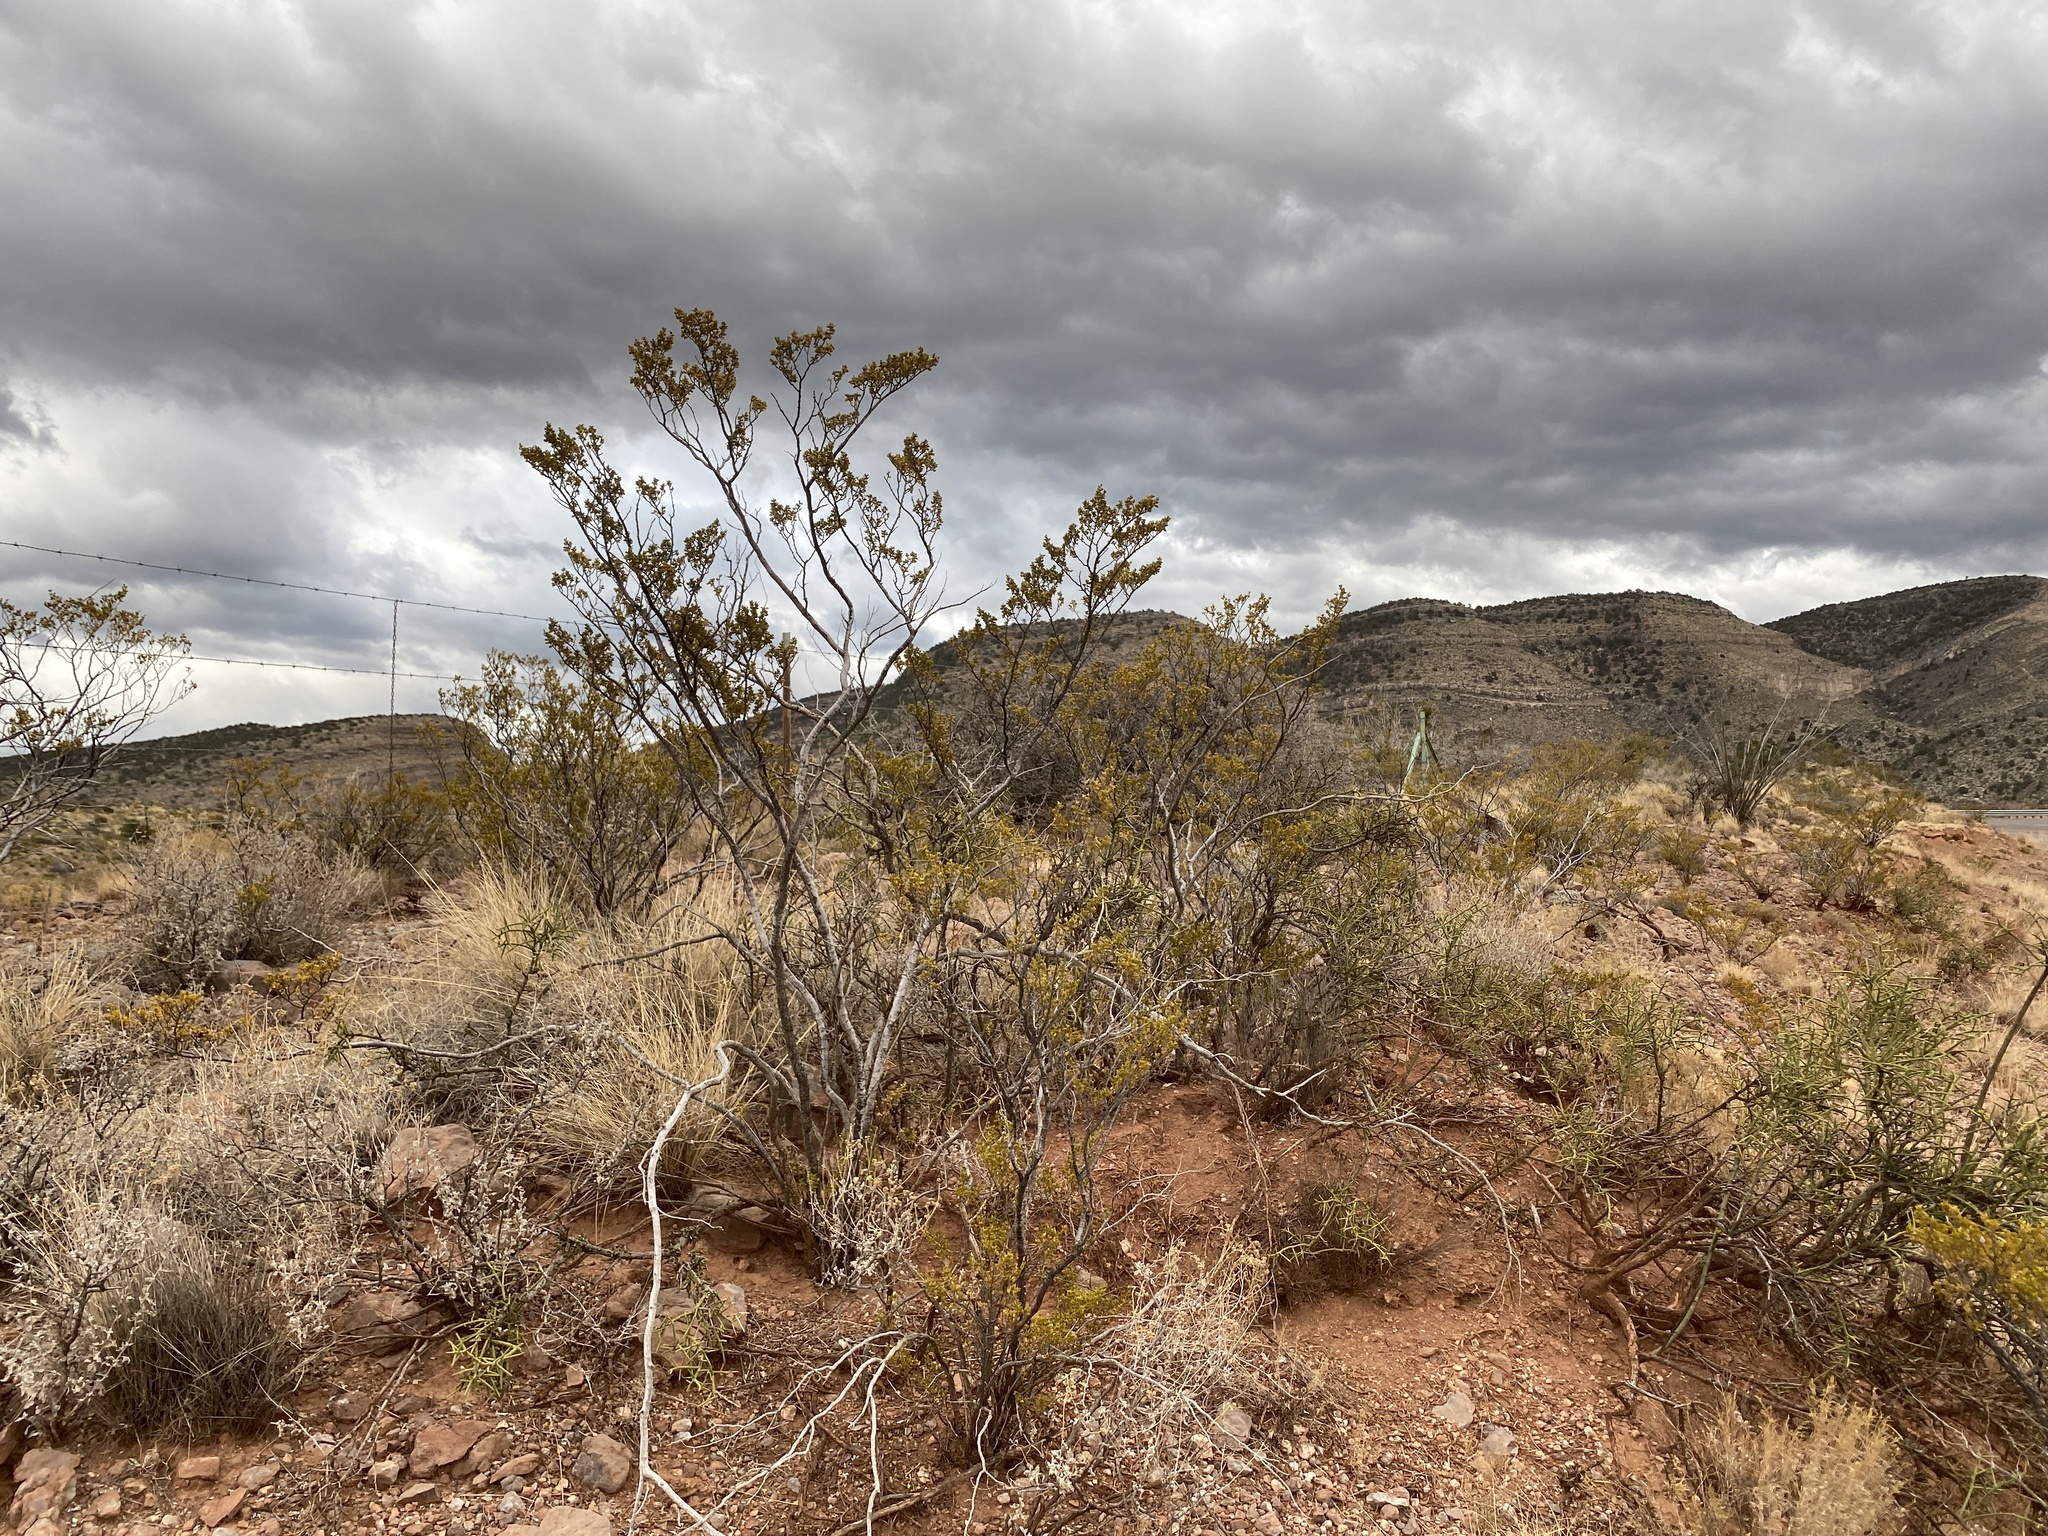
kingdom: Plantae
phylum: Tracheophyta
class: Magnoliopsida
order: Zygophyllales
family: Zygophyllaceae
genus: Larrea
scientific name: Larrea tridentata
